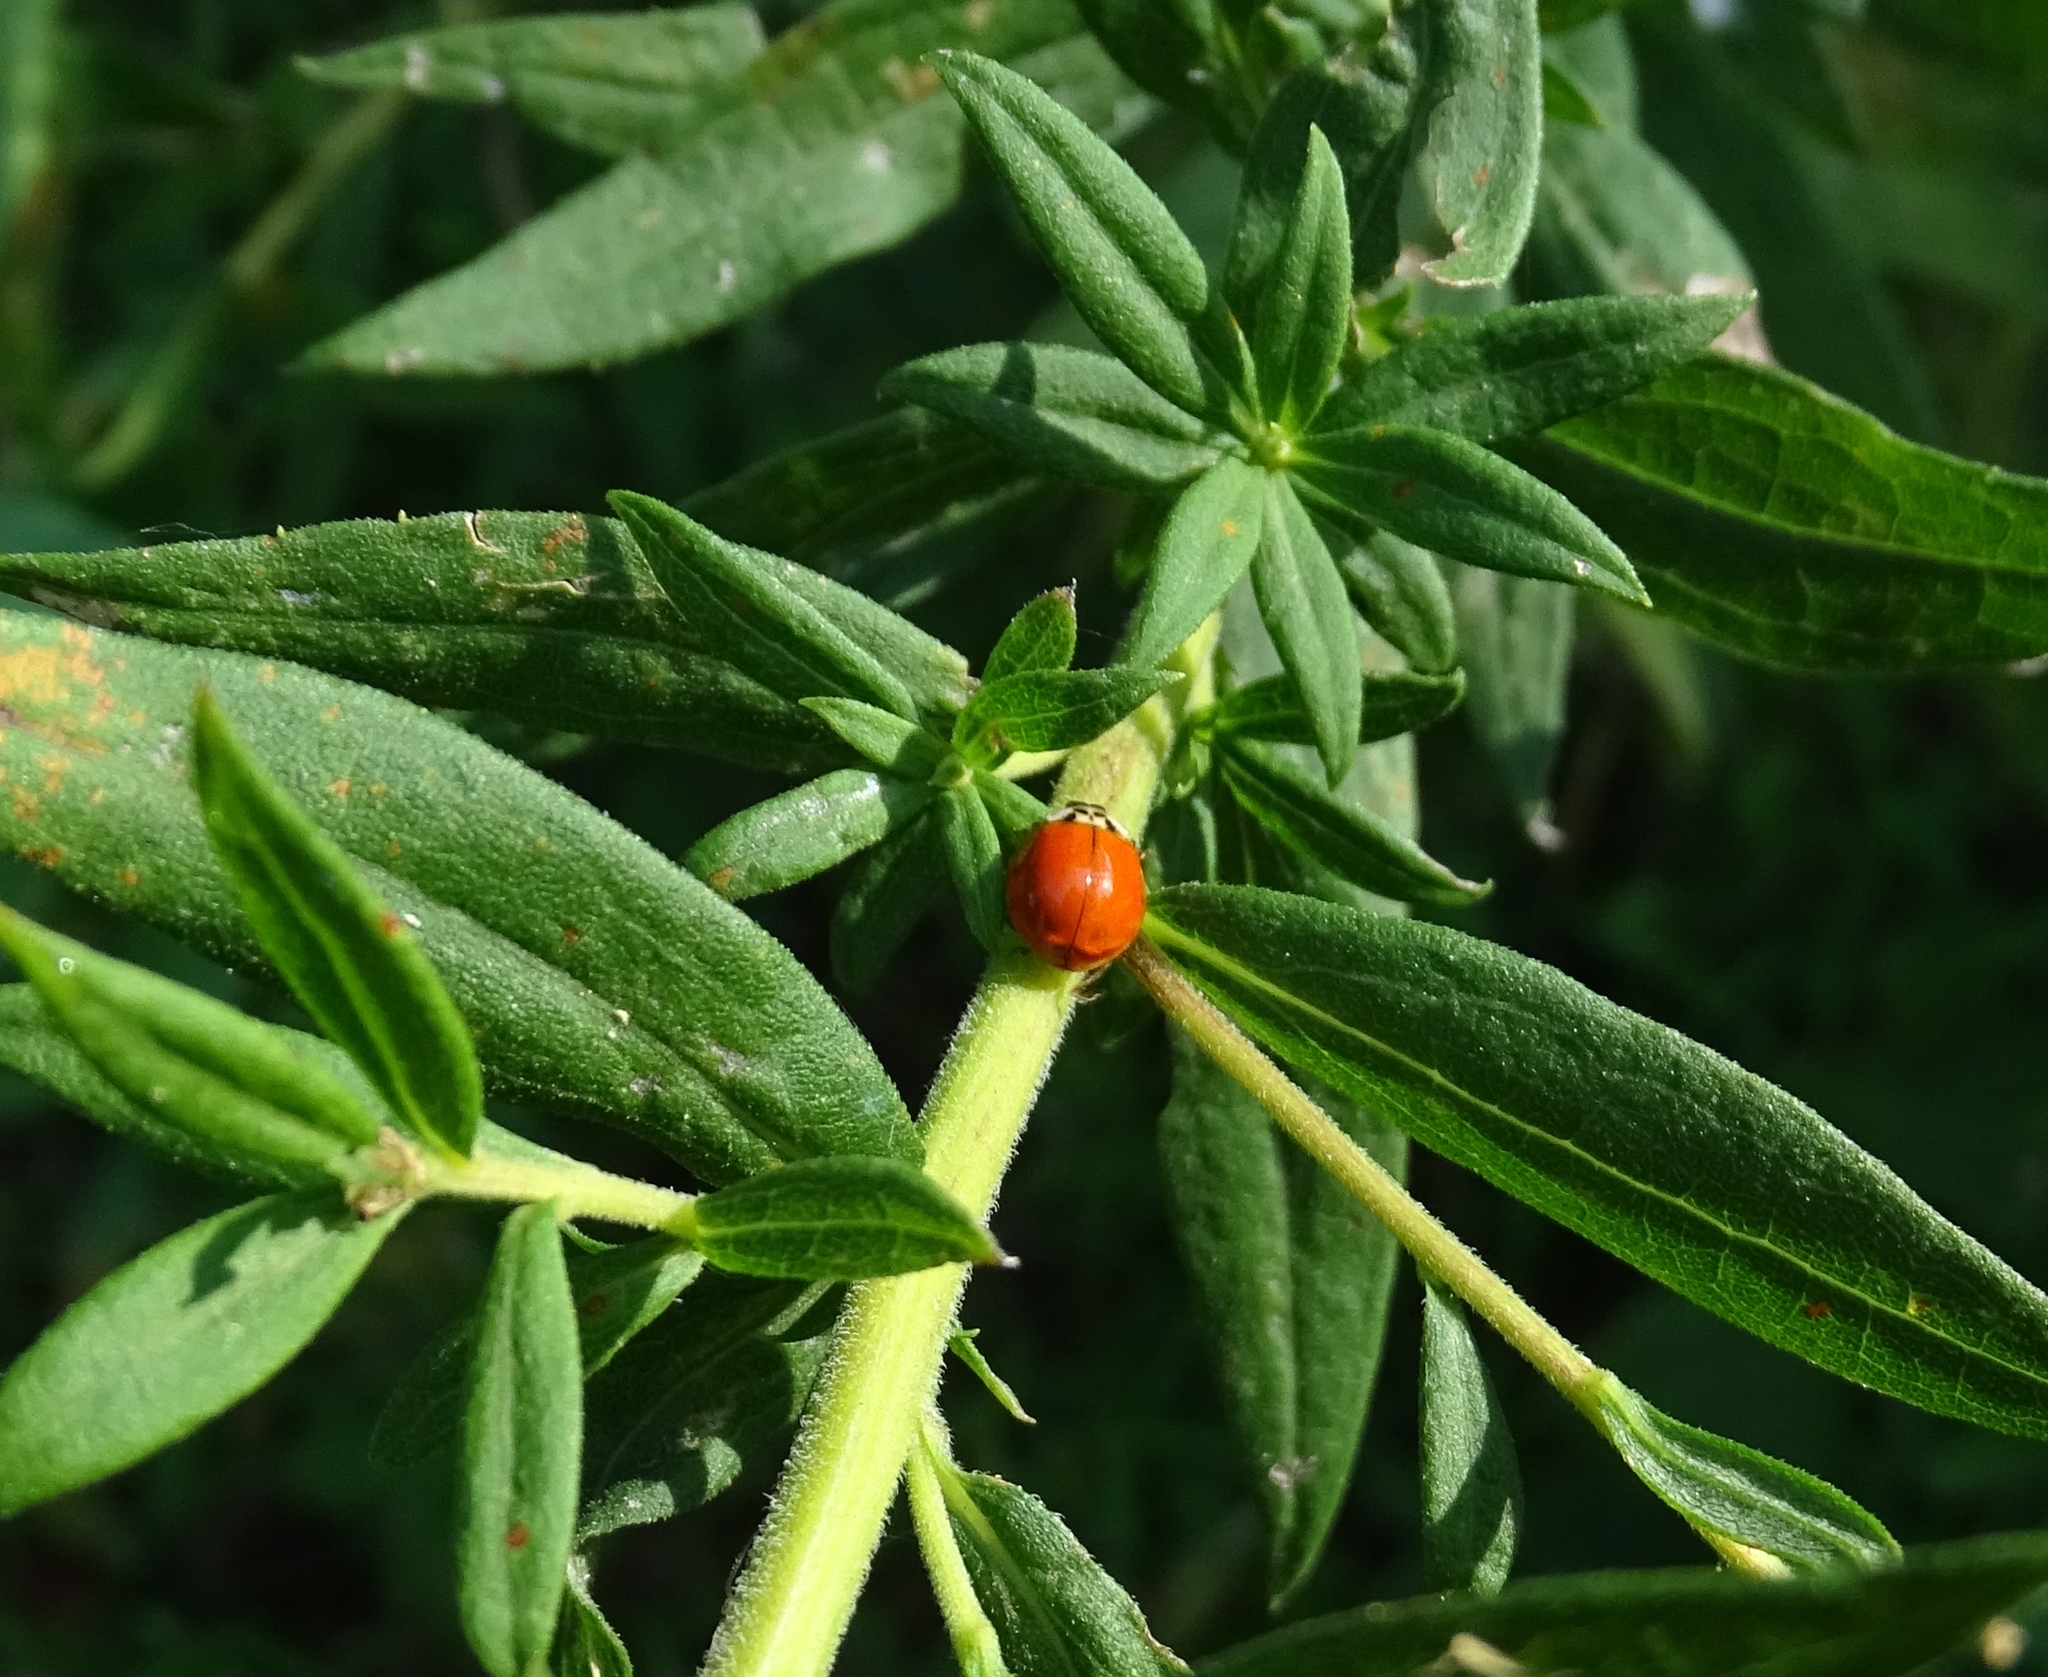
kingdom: Animalia
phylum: Arthropoda
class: Insecta
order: Coleoptera
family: Coccinellidae
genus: Harmonia
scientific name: Harmonia axyridis
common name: Harlequin ladybird
